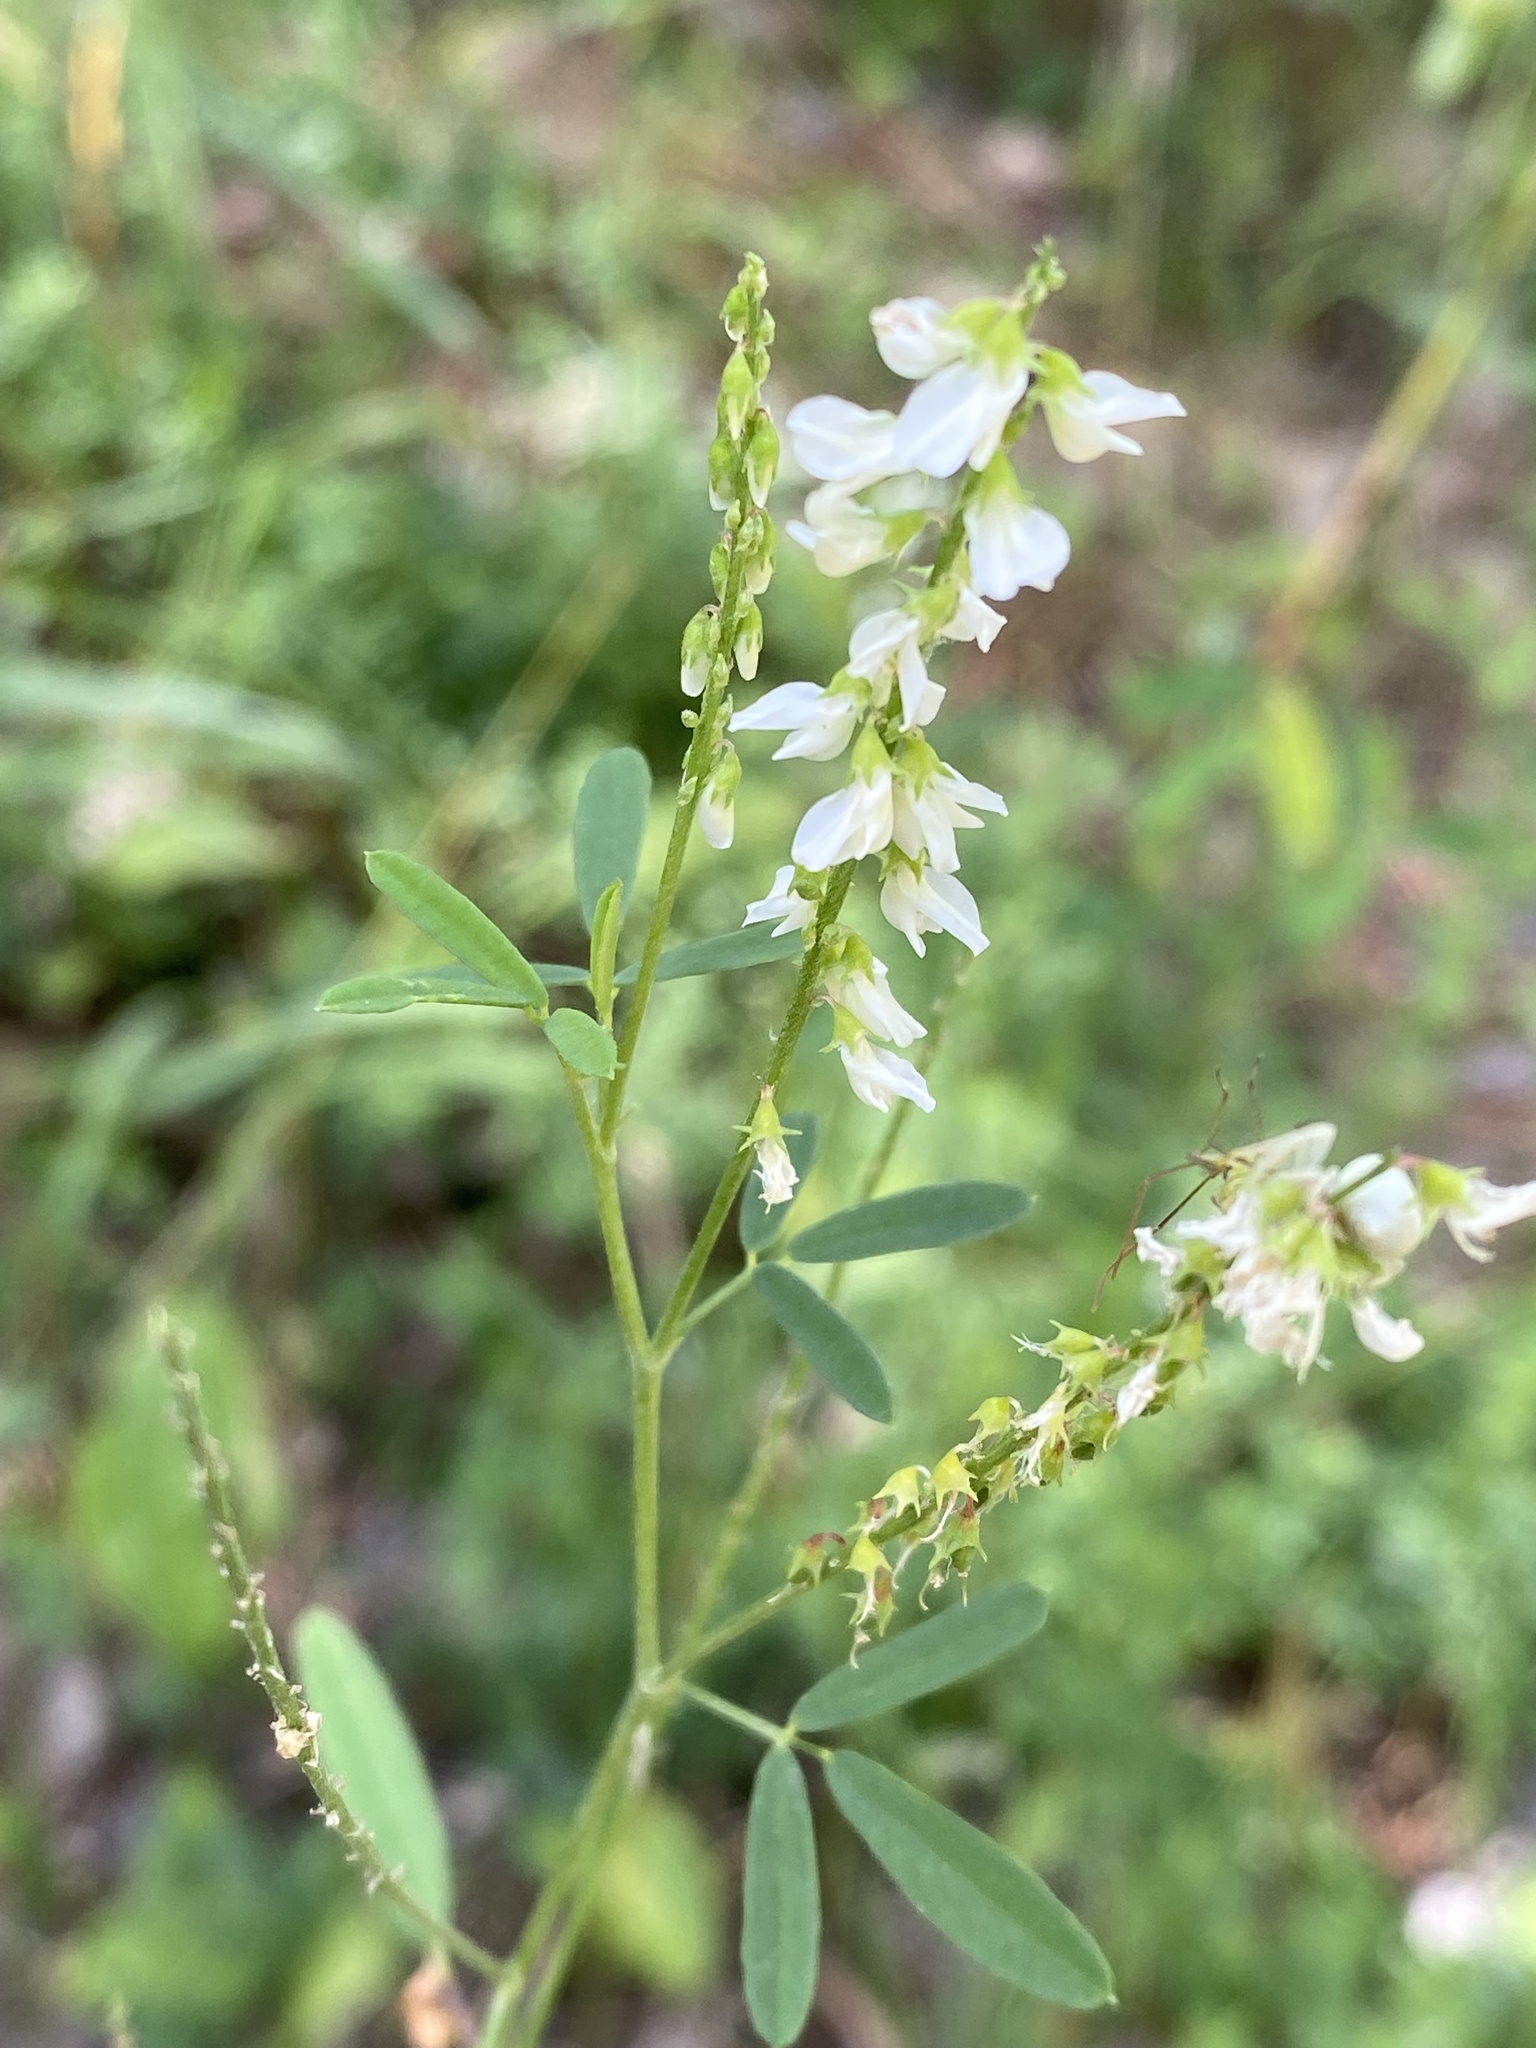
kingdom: Plantae
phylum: Tracheophyta
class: Magnoliopsida
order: Fabales
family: Fabaceae
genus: Melilotus
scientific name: Melilotus albus
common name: White melilot
